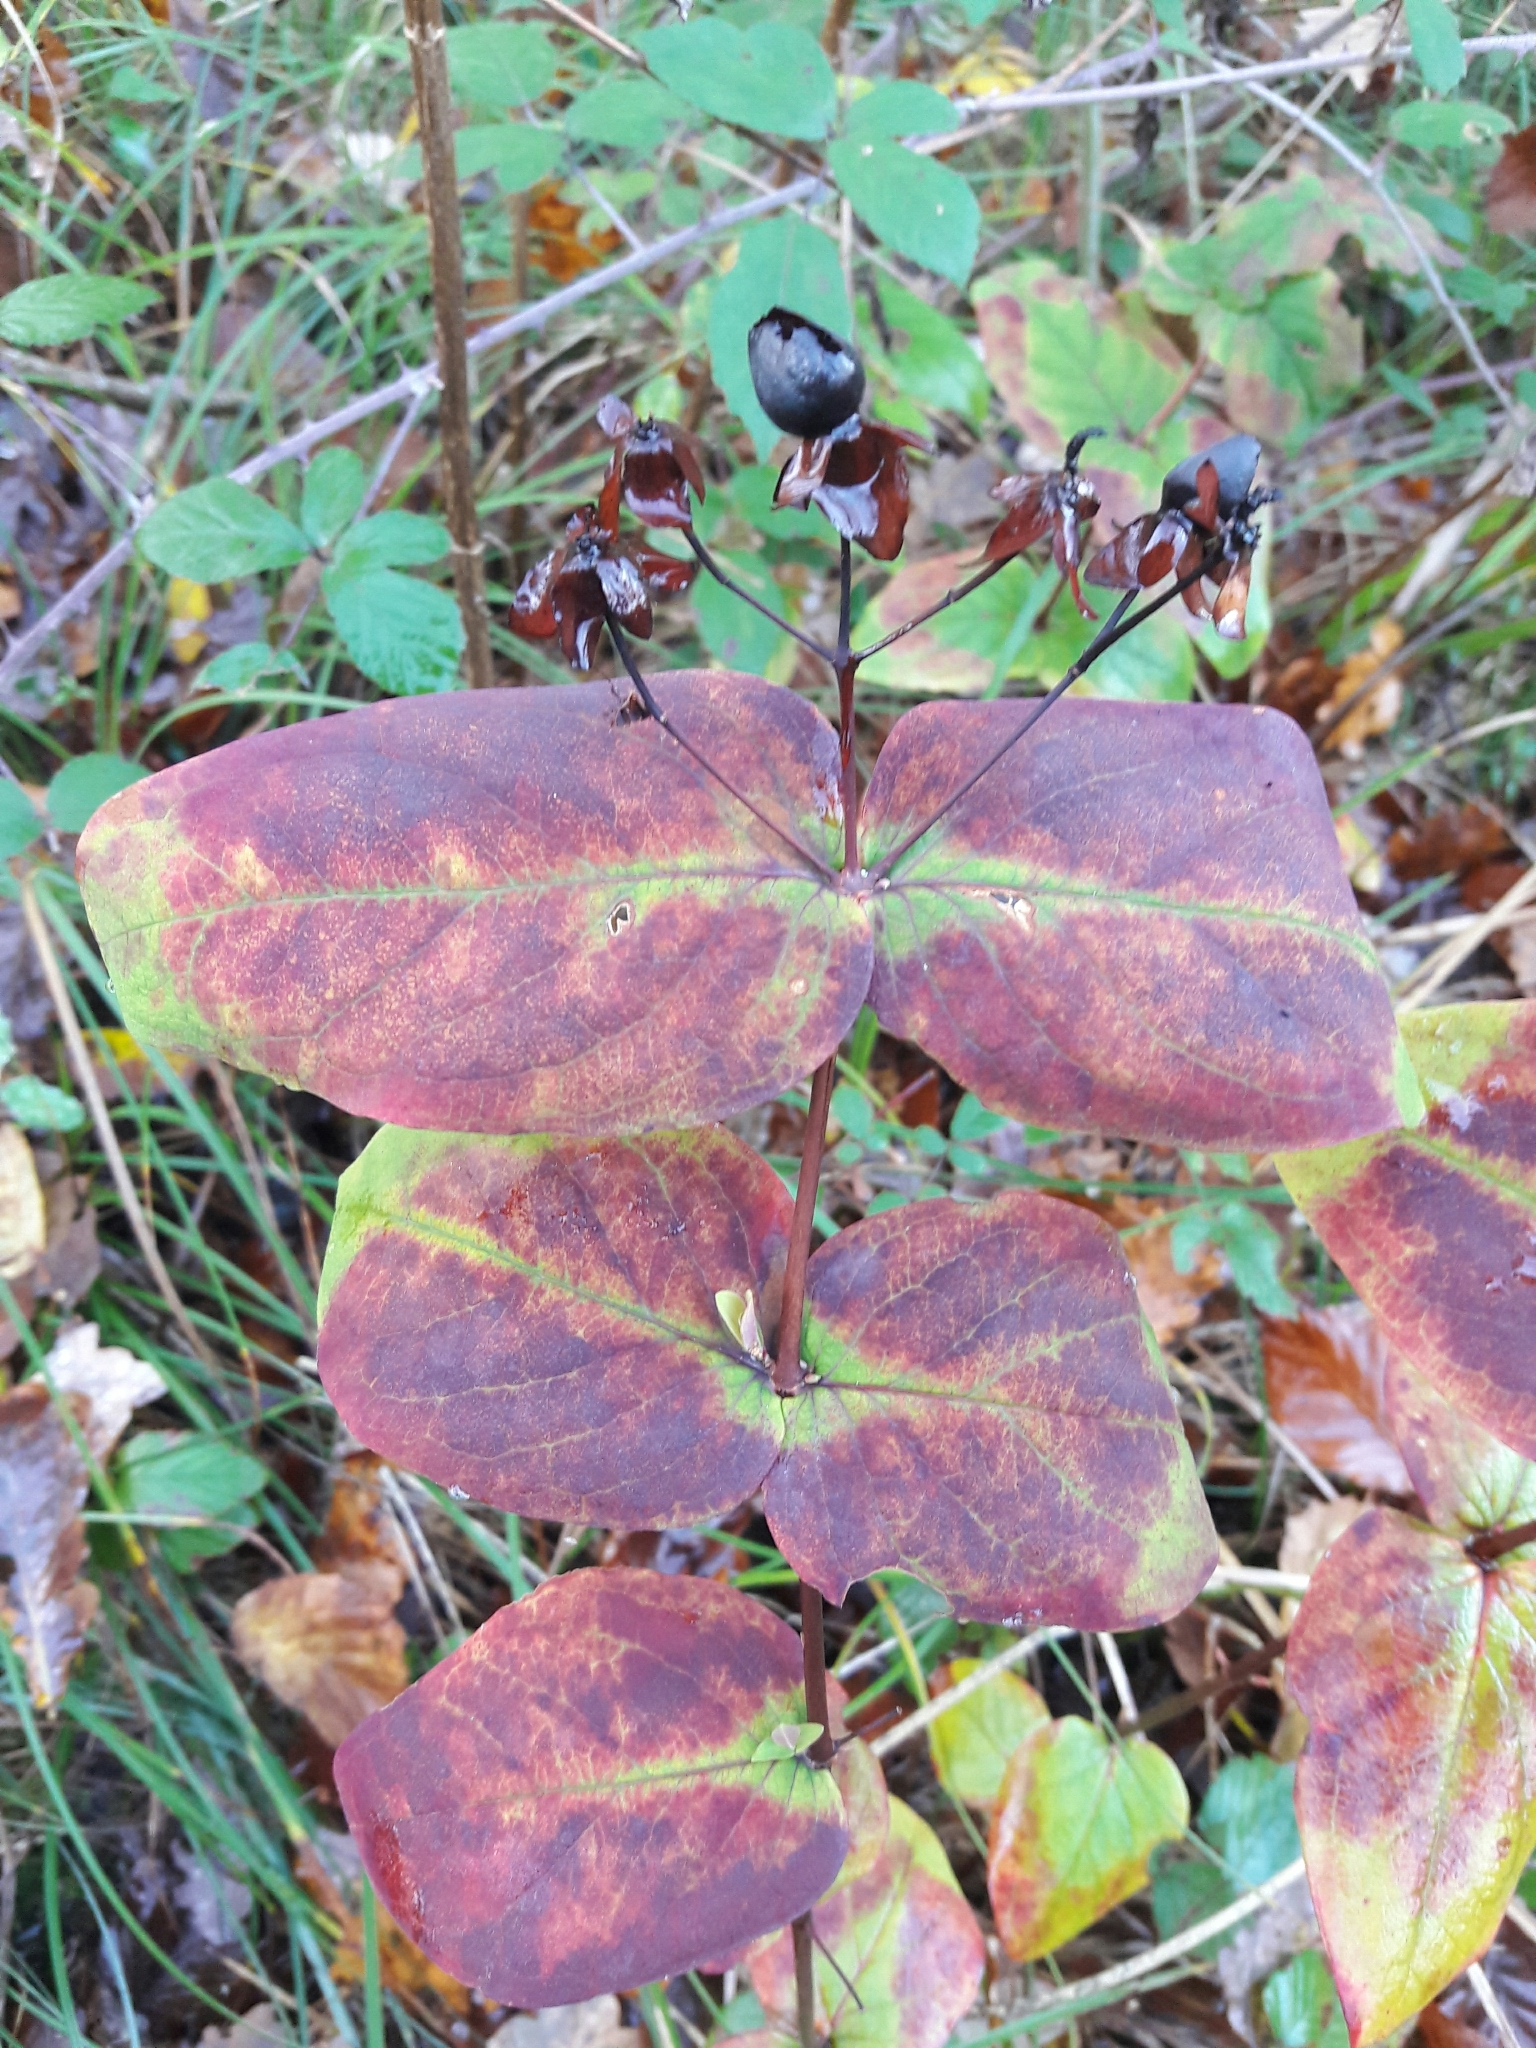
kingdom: Plantae
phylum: Tracheophyta
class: Magnoliopsida
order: Malpighiales
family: Hypericaceae
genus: Hypericum
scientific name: Hypericum androsaemum
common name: Sweet-amber
